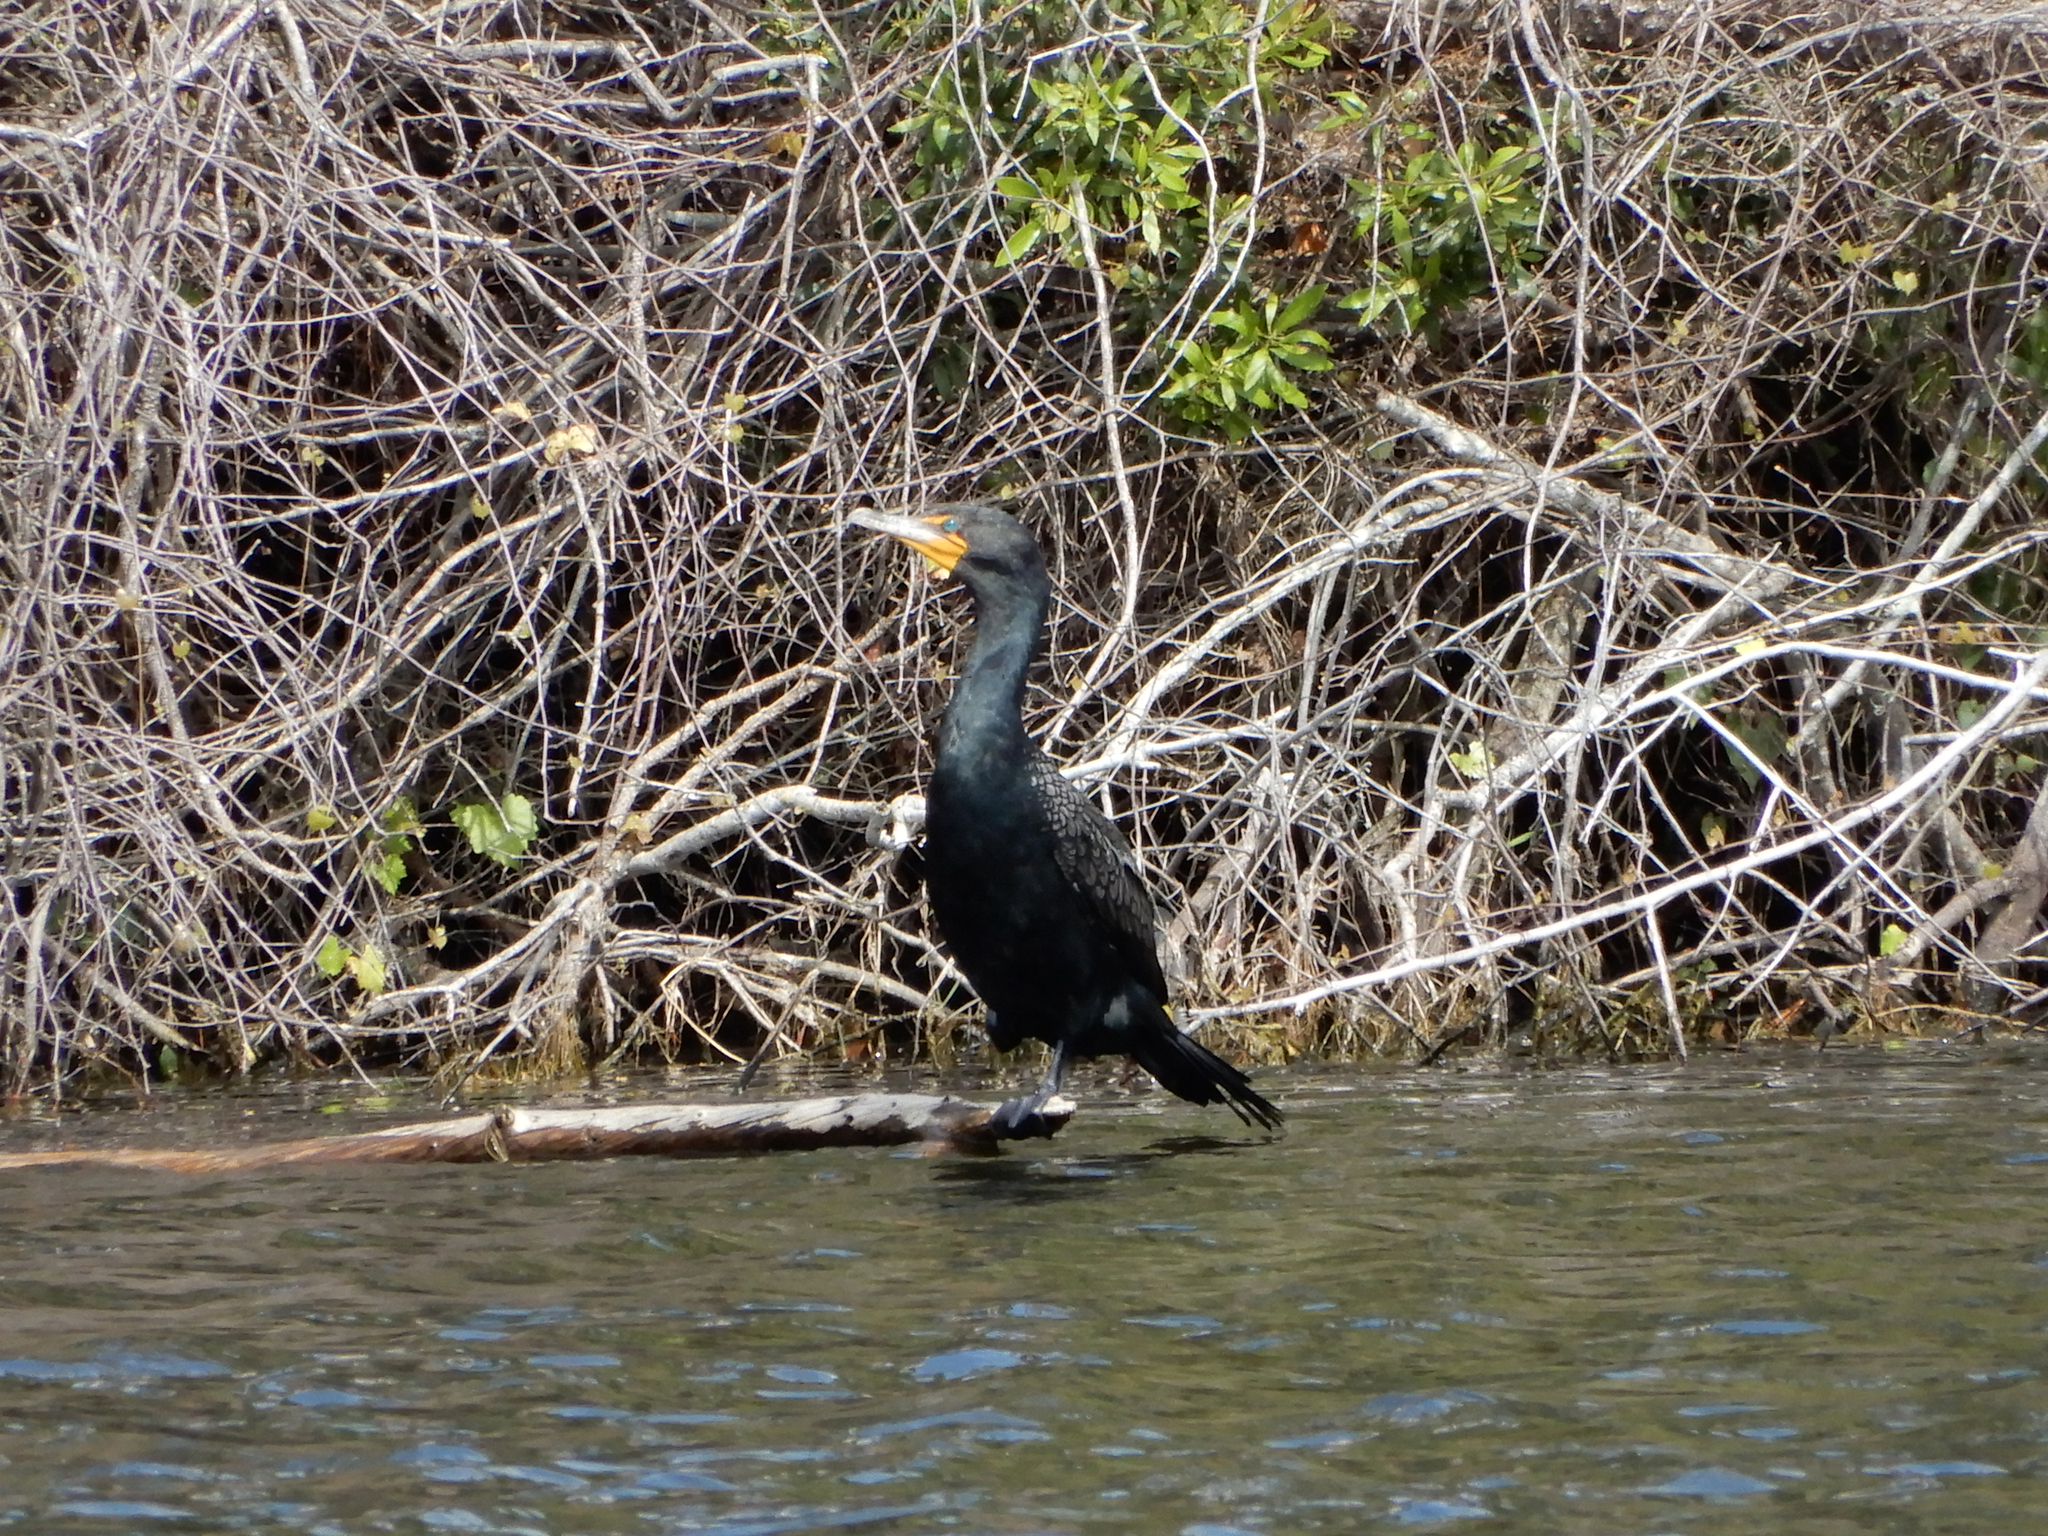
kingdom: Animalia
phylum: Chordata
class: Aves
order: Suliformes
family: Phalacrocoracidae
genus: Phalacrocorax
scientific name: Phalacrocorax auritus
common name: Double-crested cormorant
